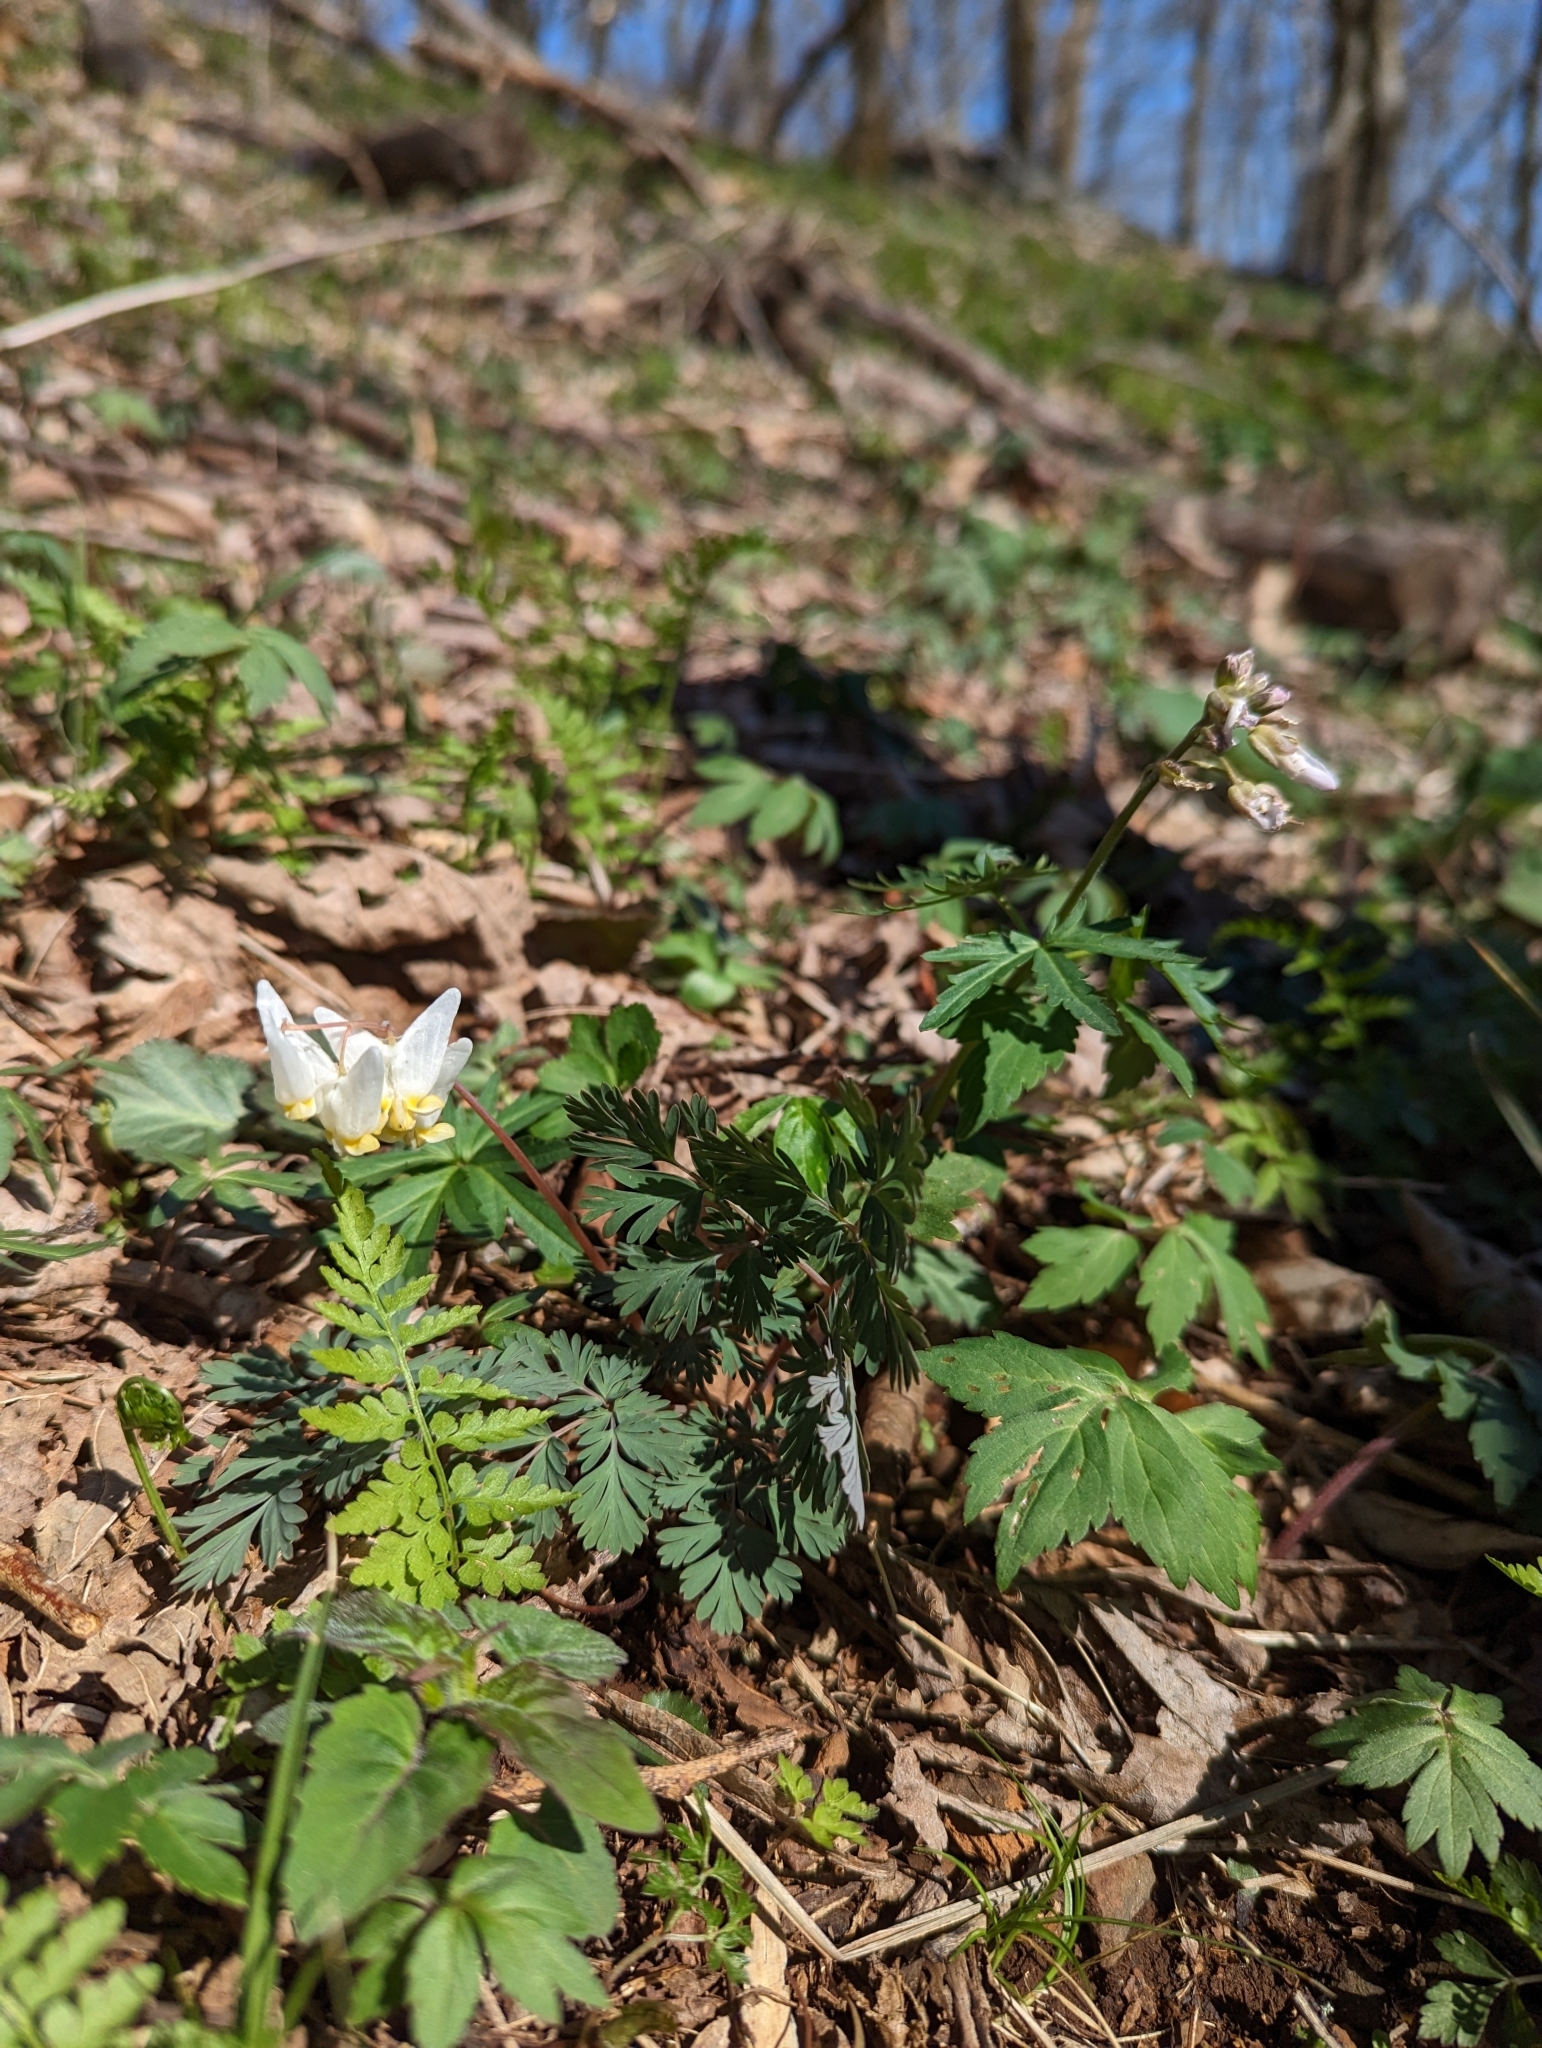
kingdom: Plantae
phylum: Tracheophyta
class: Magnoliopsida
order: Ranunculales
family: Papaveraceae
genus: Dicentra
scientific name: Dicentra cucullaria
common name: Dutchman's breeches
